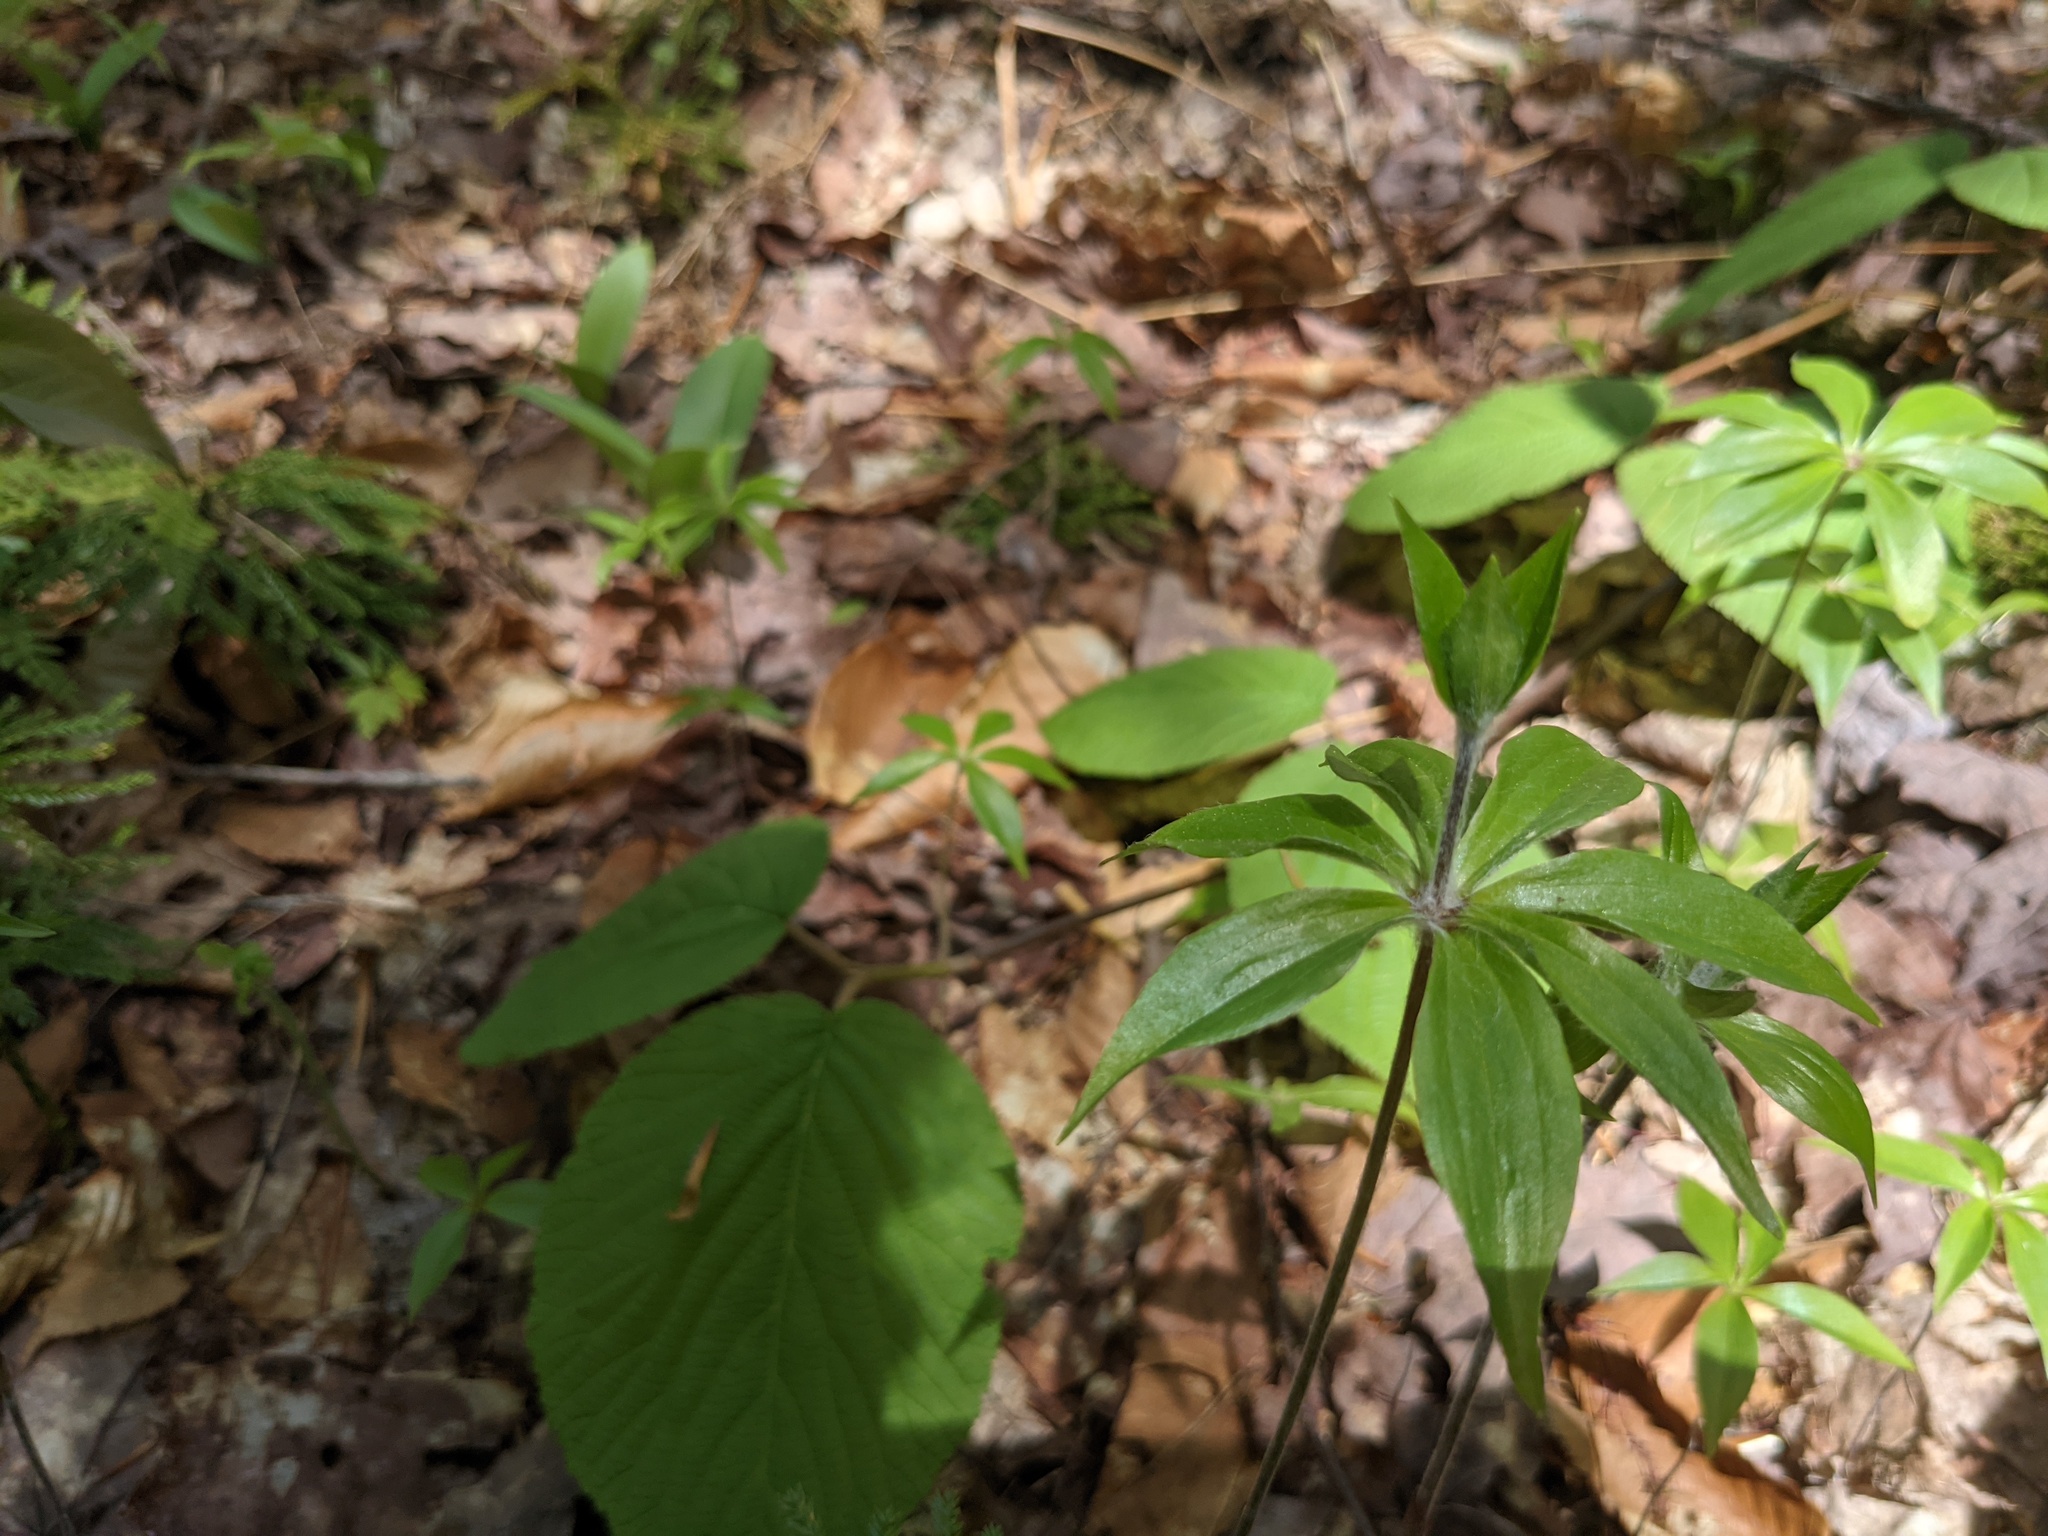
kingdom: Plantae
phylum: Tracheophyta
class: Liliopsida
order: Liliales
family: Liliaceae
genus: Medeola
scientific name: Medeola virginiana
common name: Indian cucumber-root
